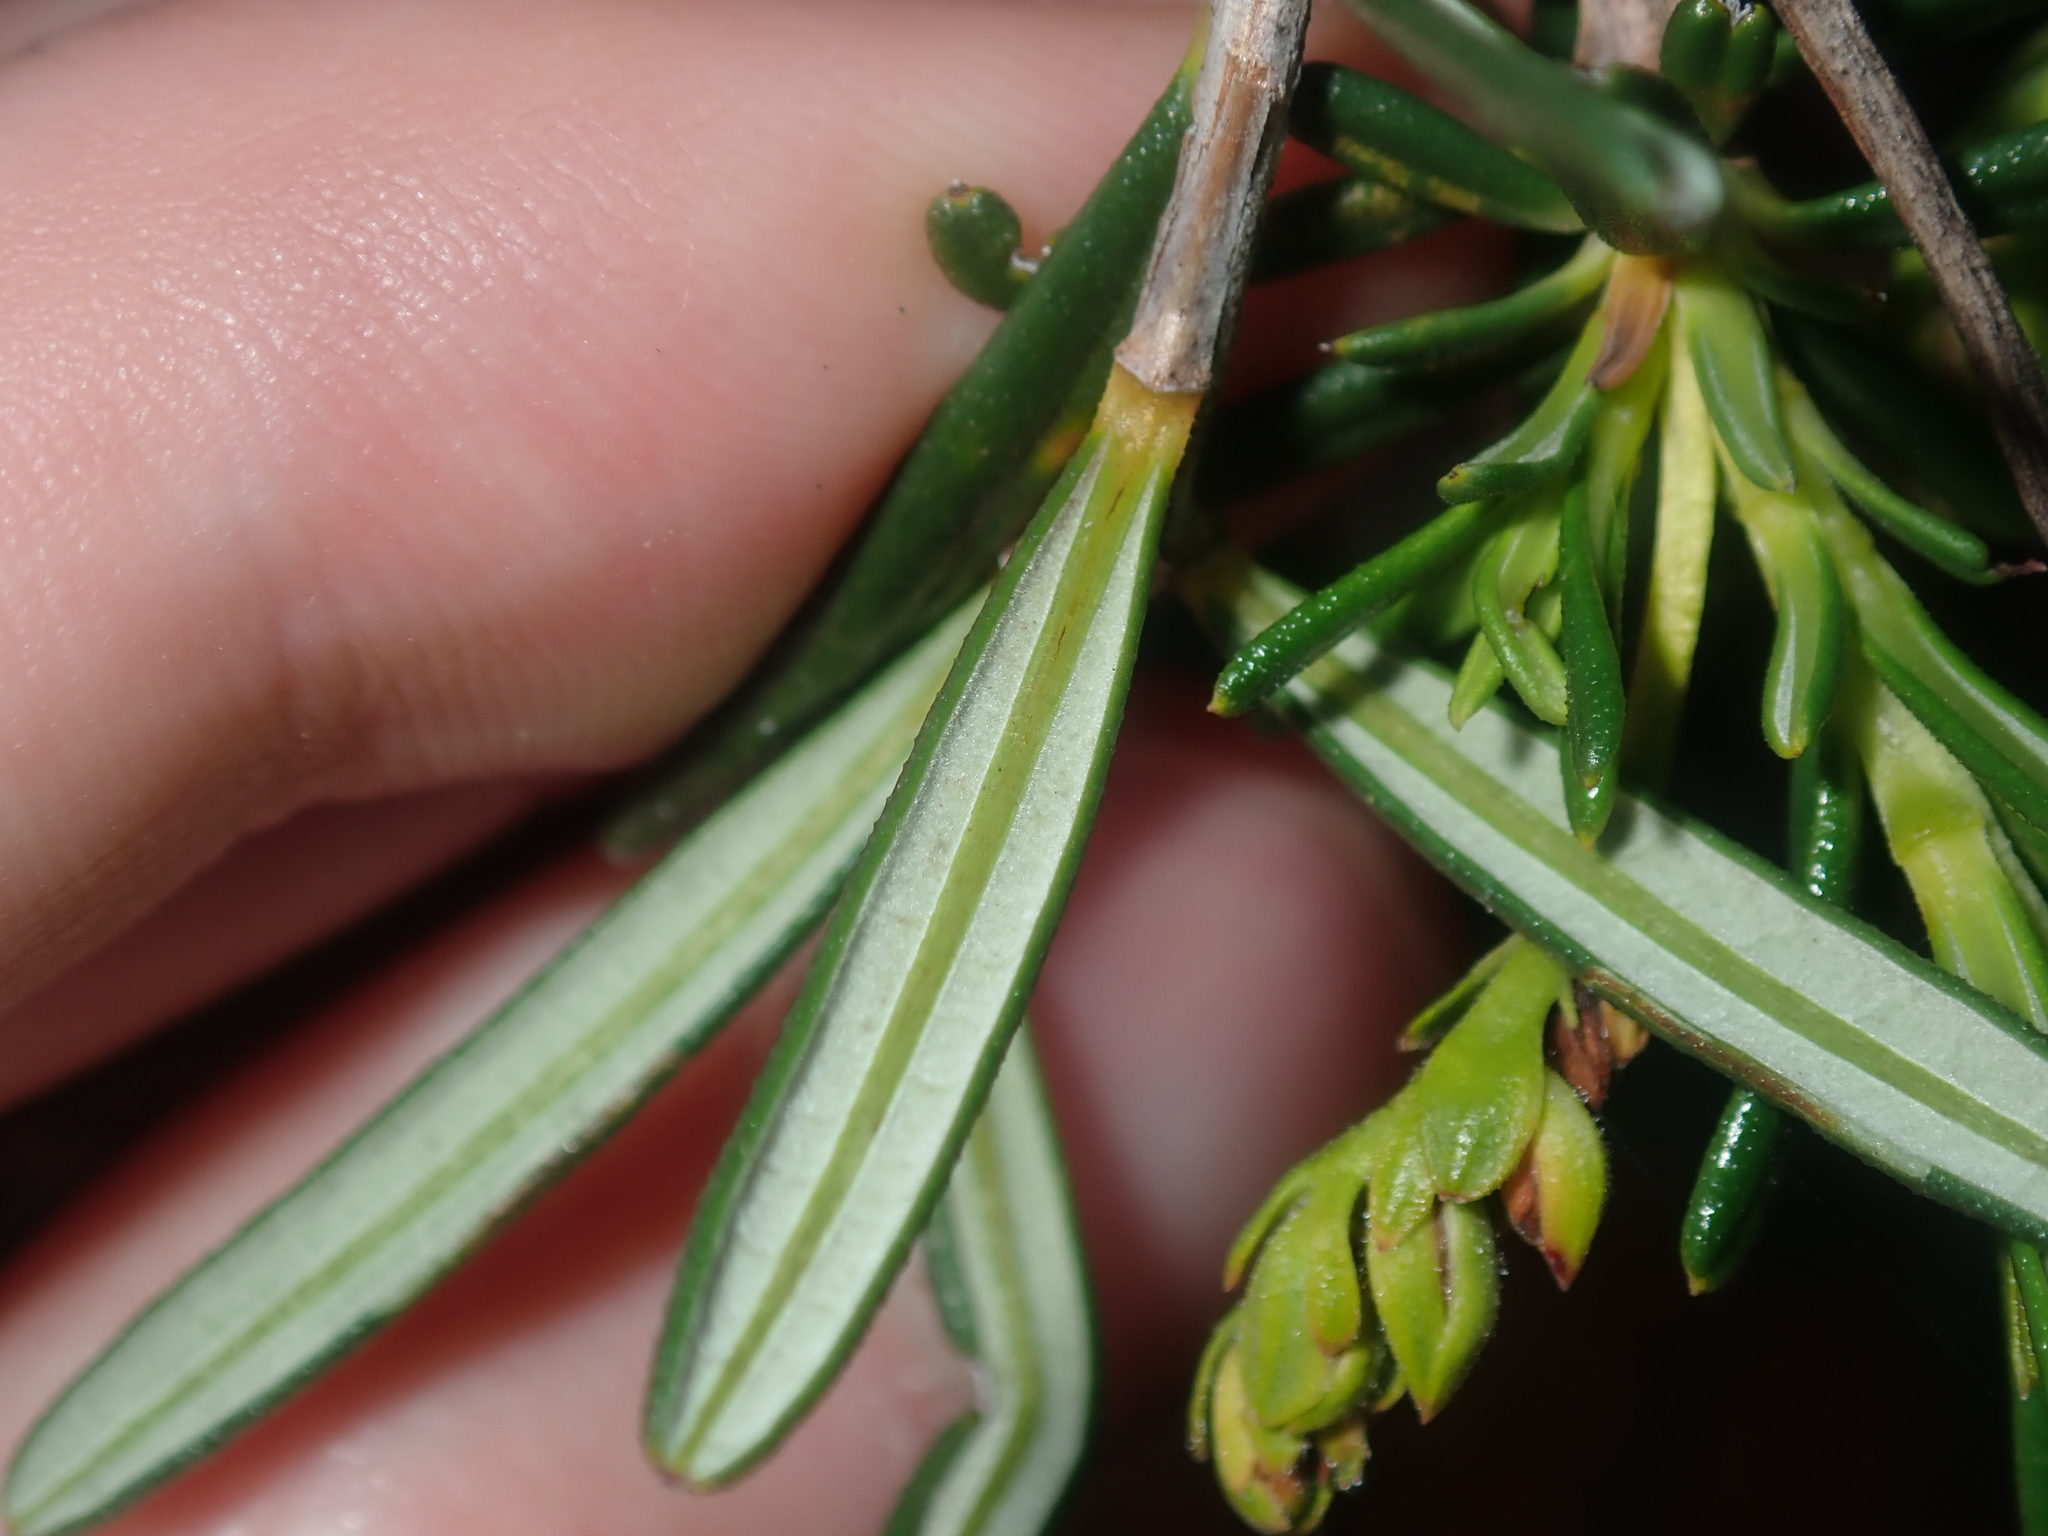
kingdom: Plantae
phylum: Tracheophyta
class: Magnoliopsida
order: Dilleniales
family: Dilleniaceae
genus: Hibbertia
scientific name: Hibbertia spicata
